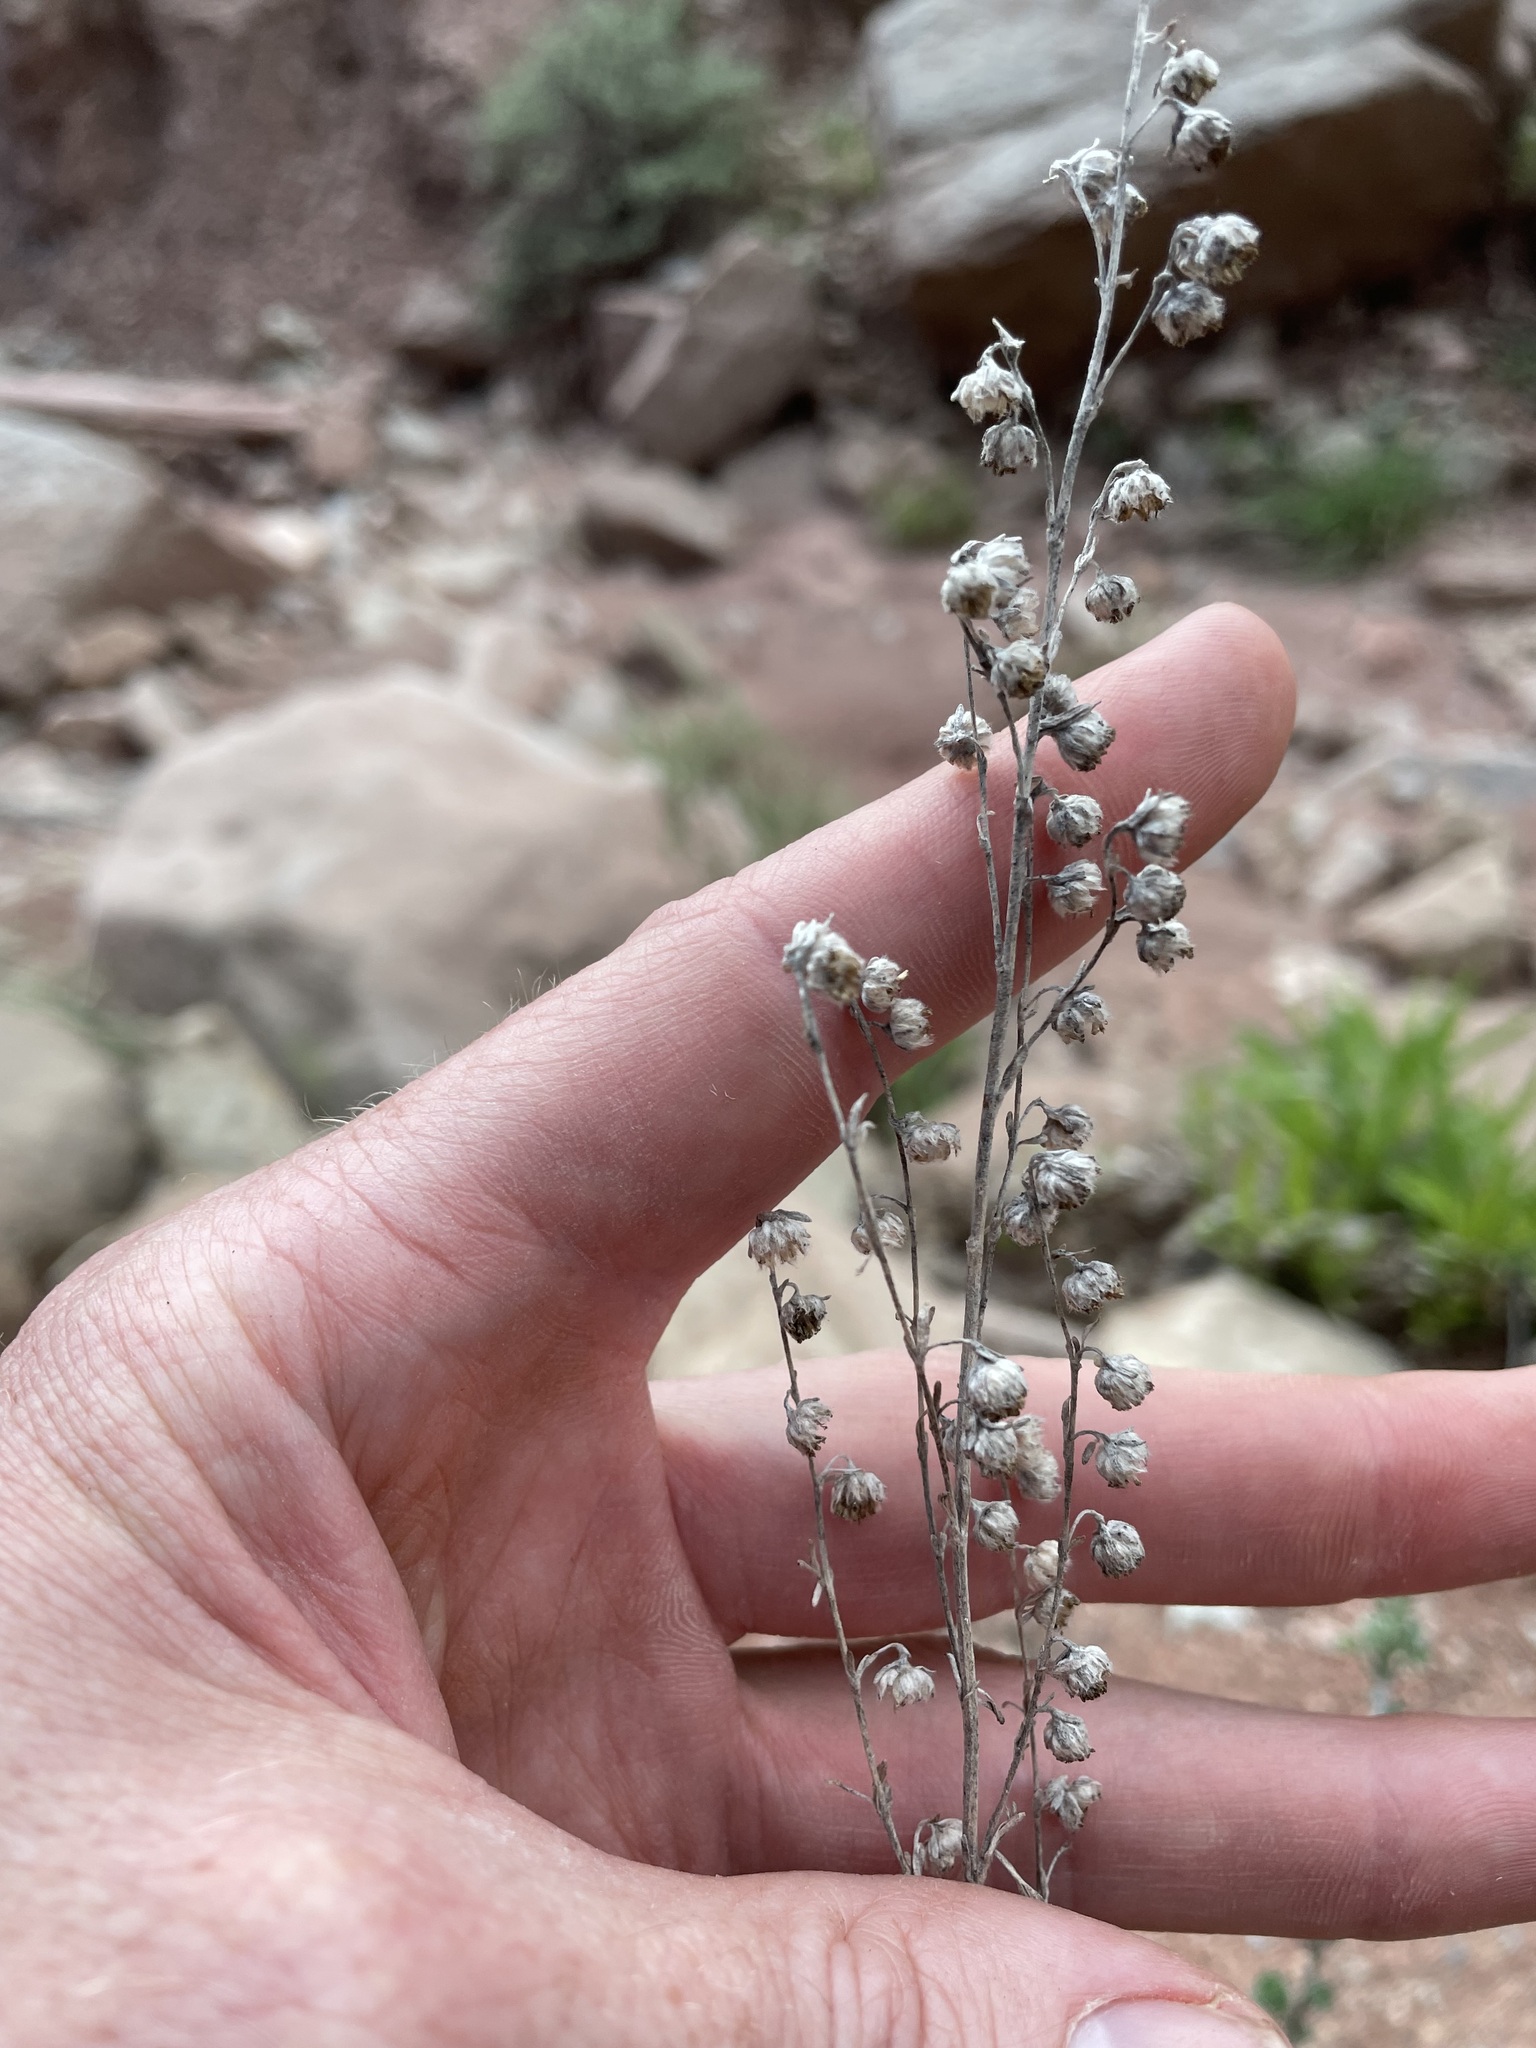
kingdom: Plantae
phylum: Tracheophyta
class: Magnoliopsida
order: Asterales
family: Asteraceae
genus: Artemisia
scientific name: Artemisia frigida
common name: Prairie sagewort
